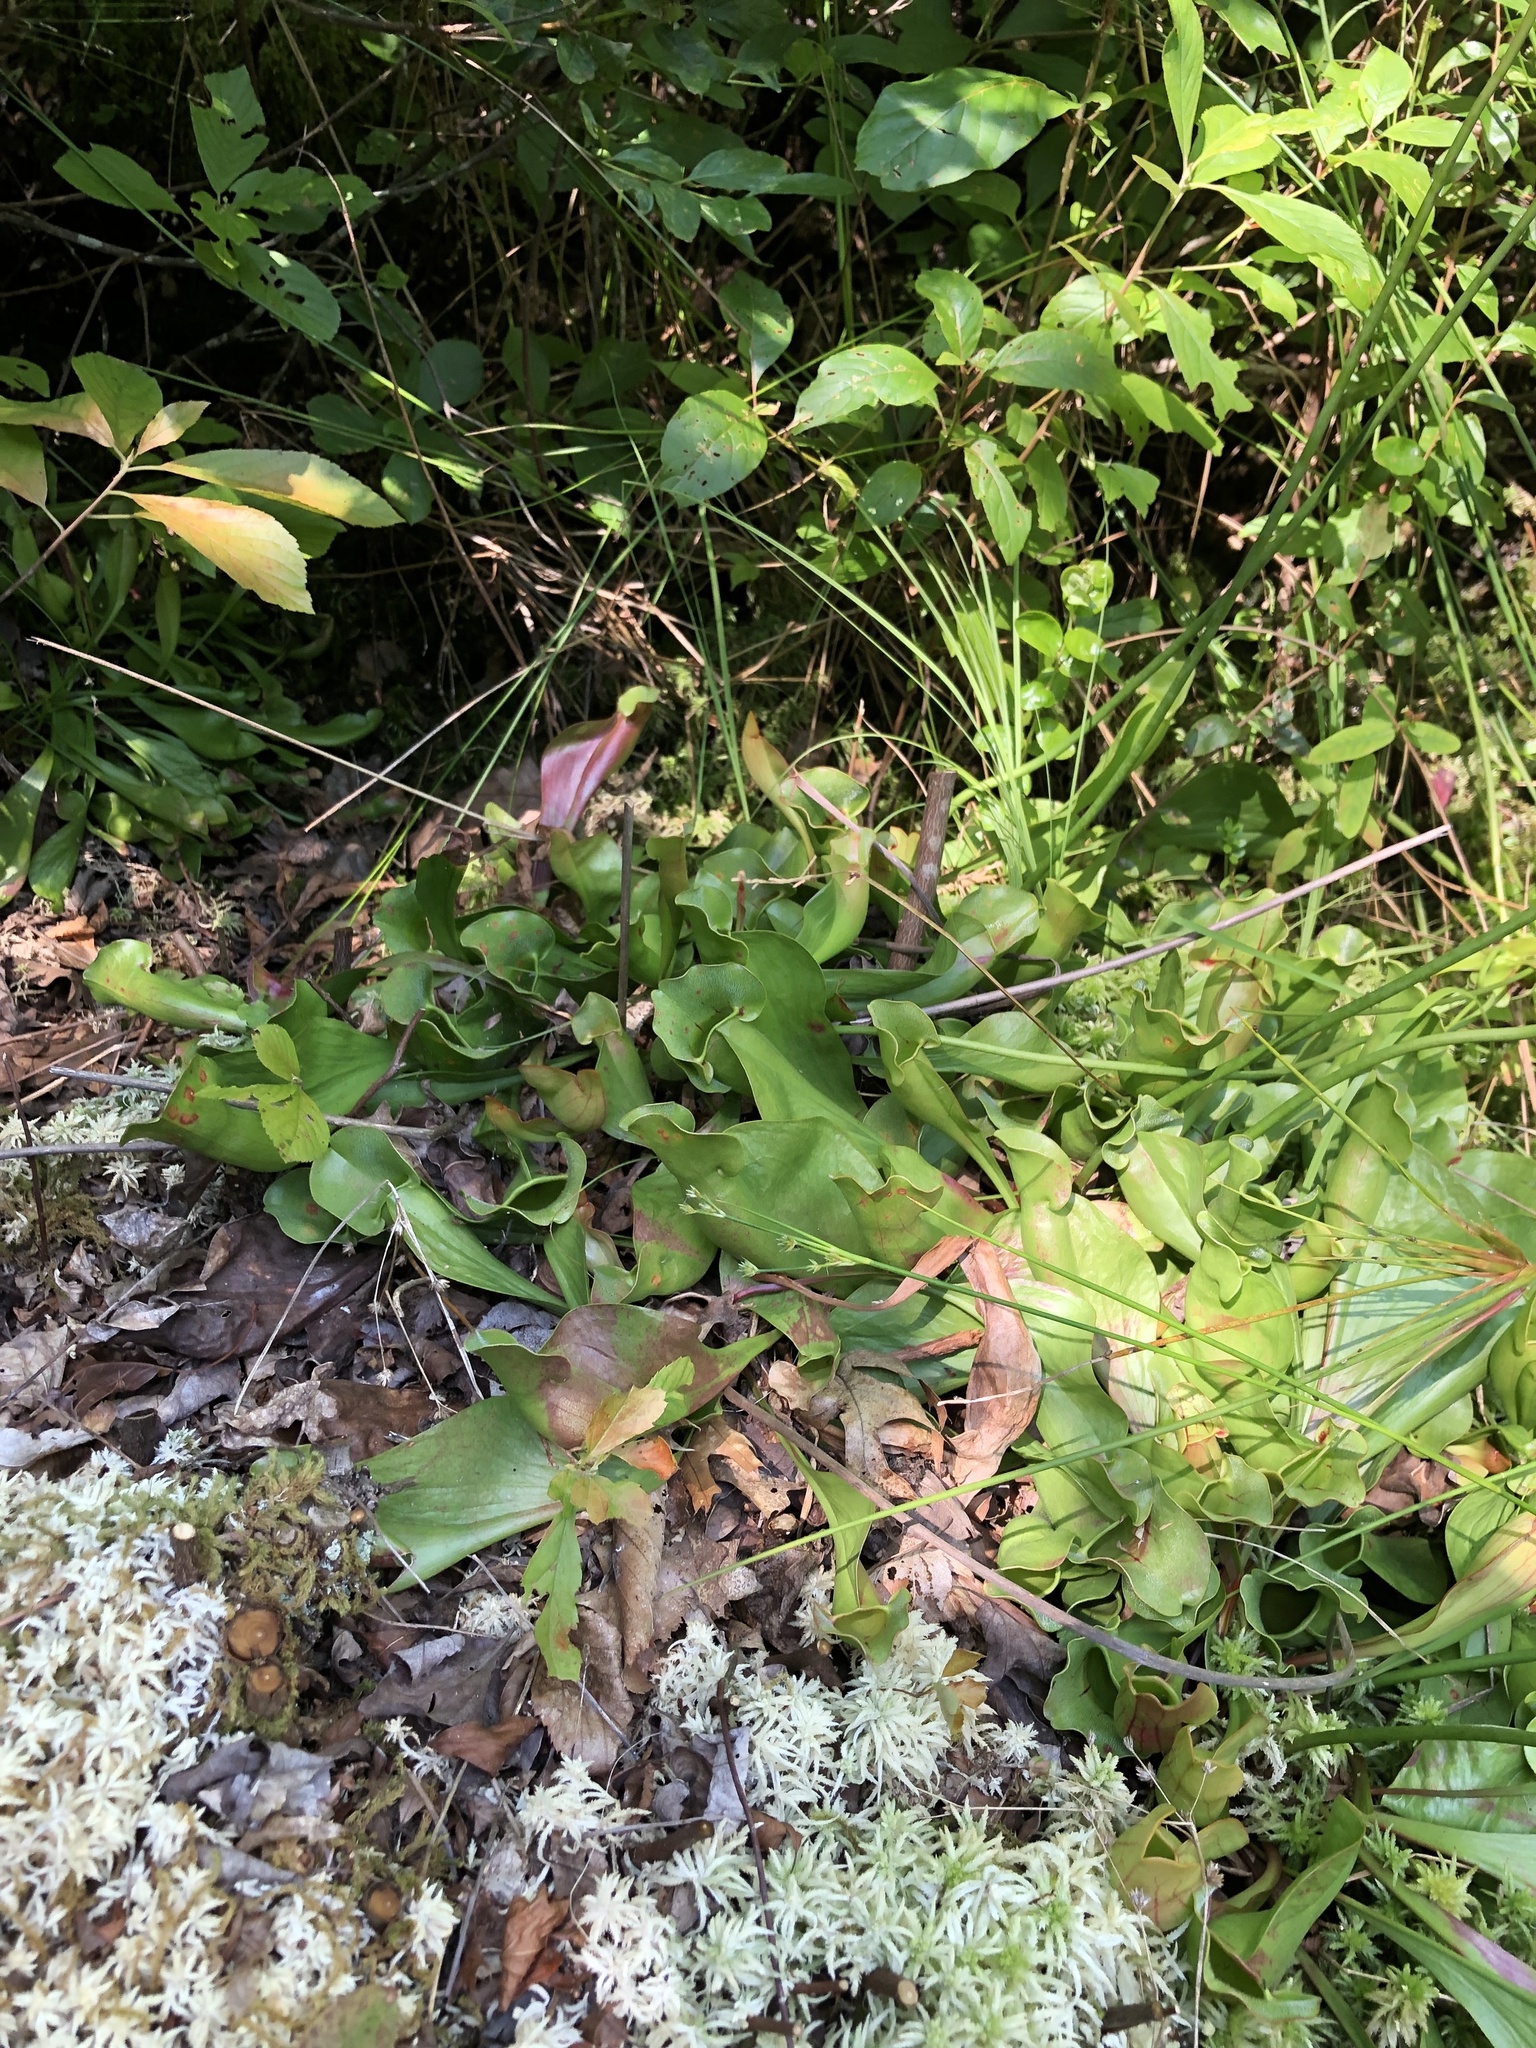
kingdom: Plantae
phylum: Tracheophyta
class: Magnoliopsida
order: Ericales
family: Sarraceniaceae
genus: Sarracenia
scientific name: Sarracenia purpurea
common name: Pitcherplant
